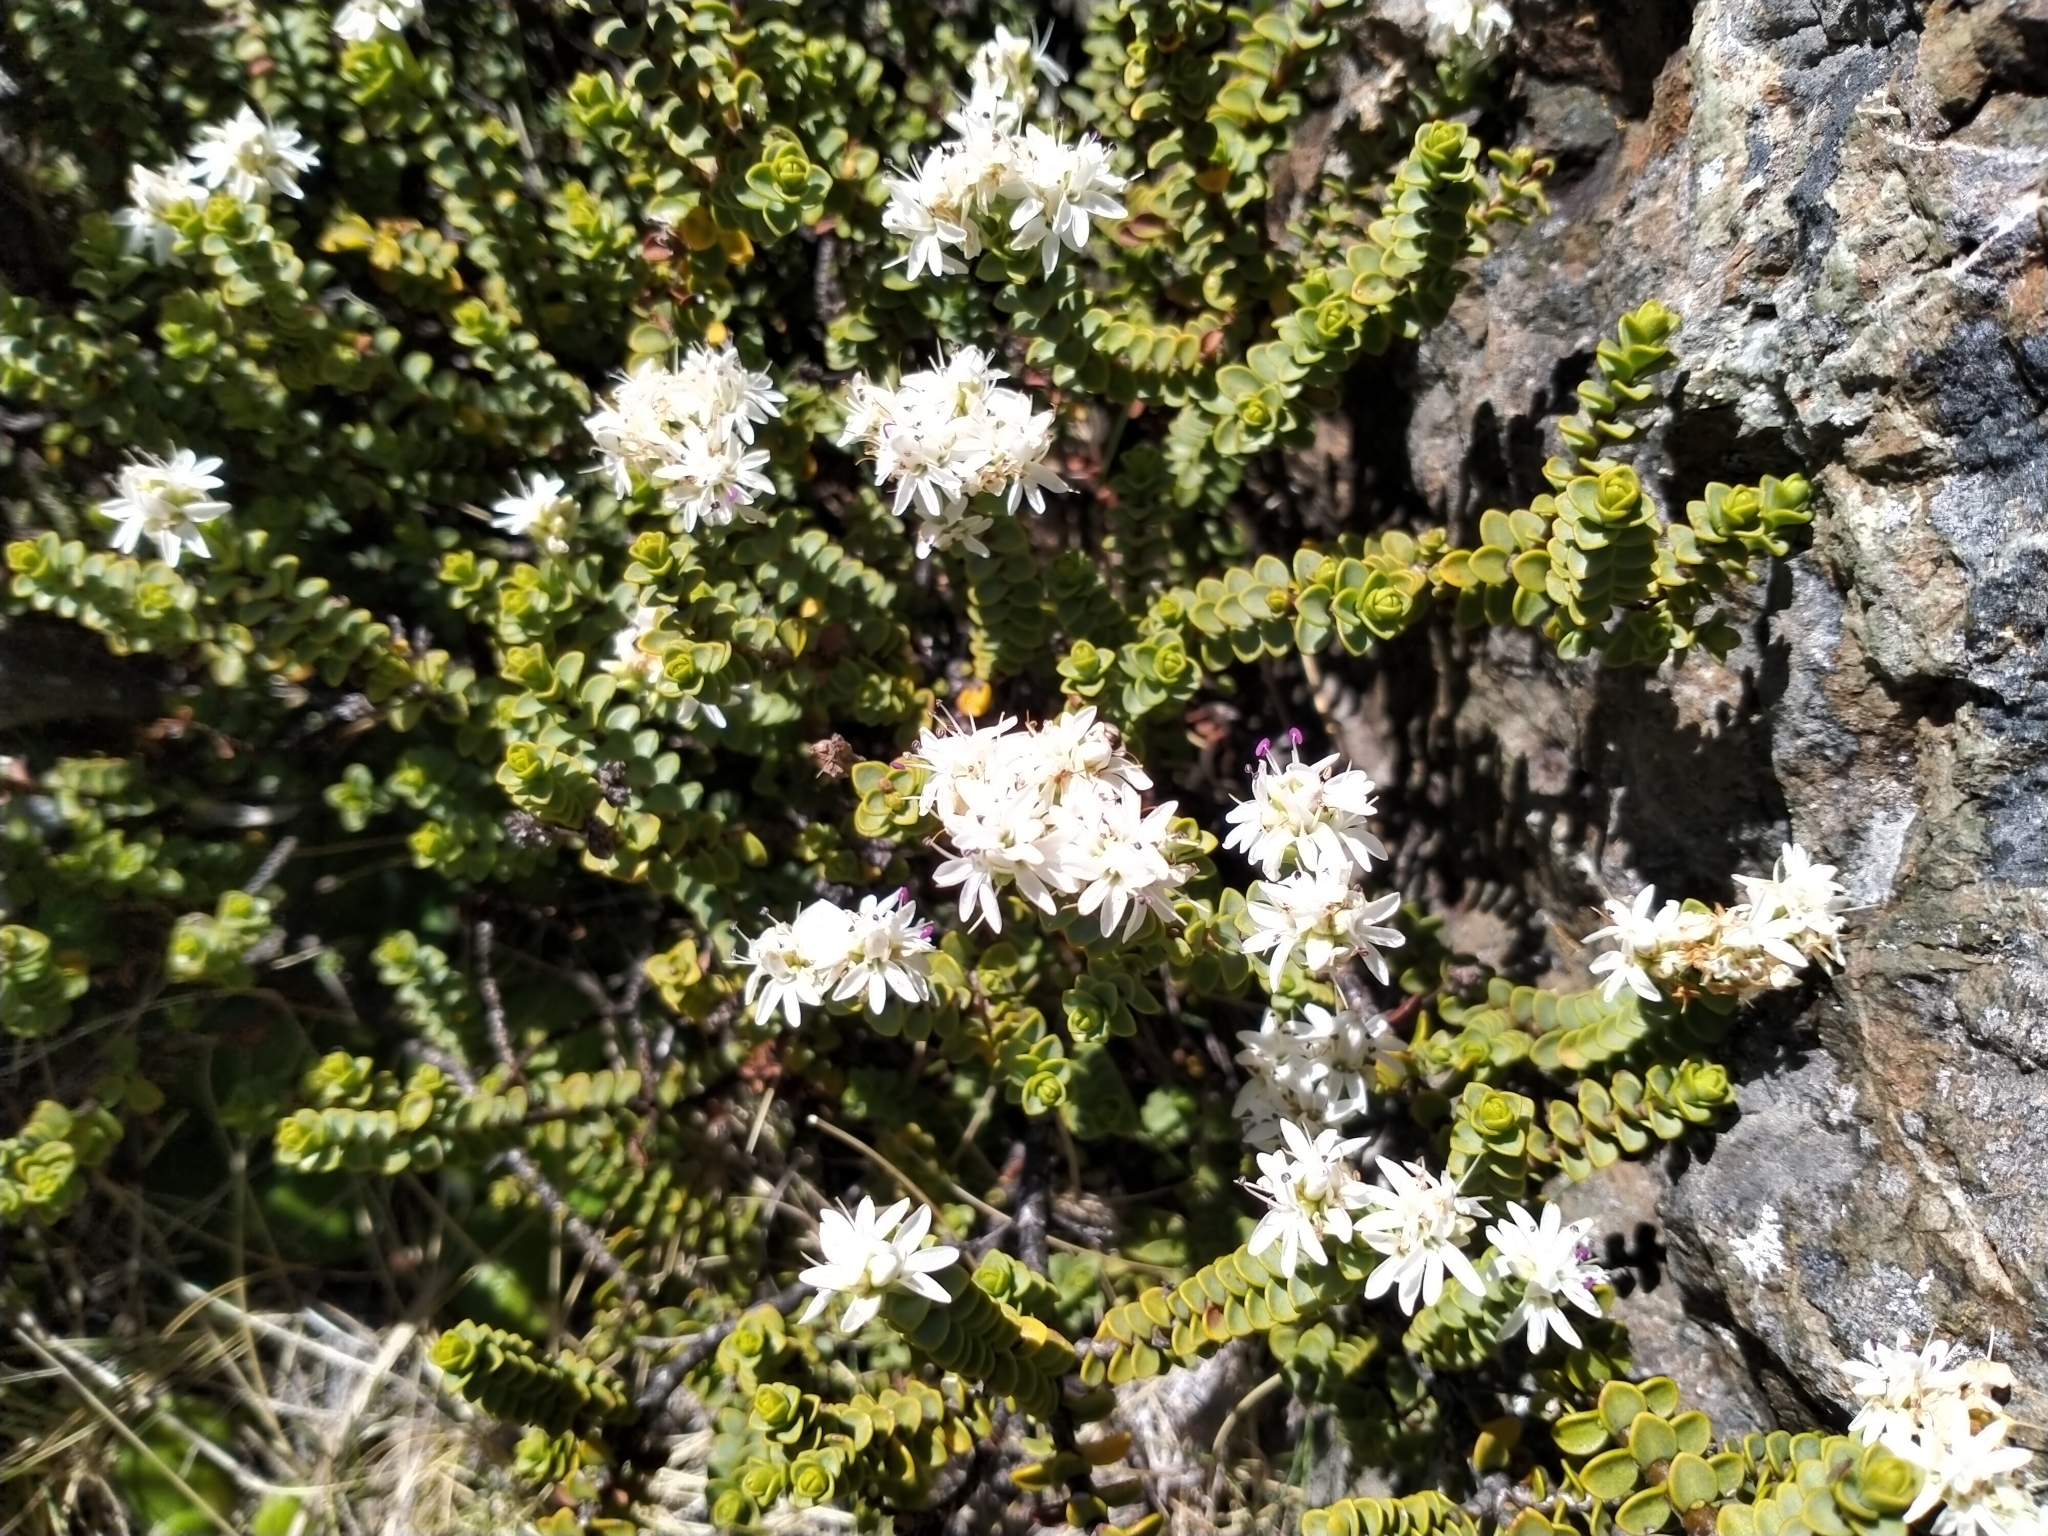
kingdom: Plantae
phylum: Tracheophyta
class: Magnoliopsida
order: Lamiales
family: Plantaginaceae
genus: Veronica
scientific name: Veronica buchananii
